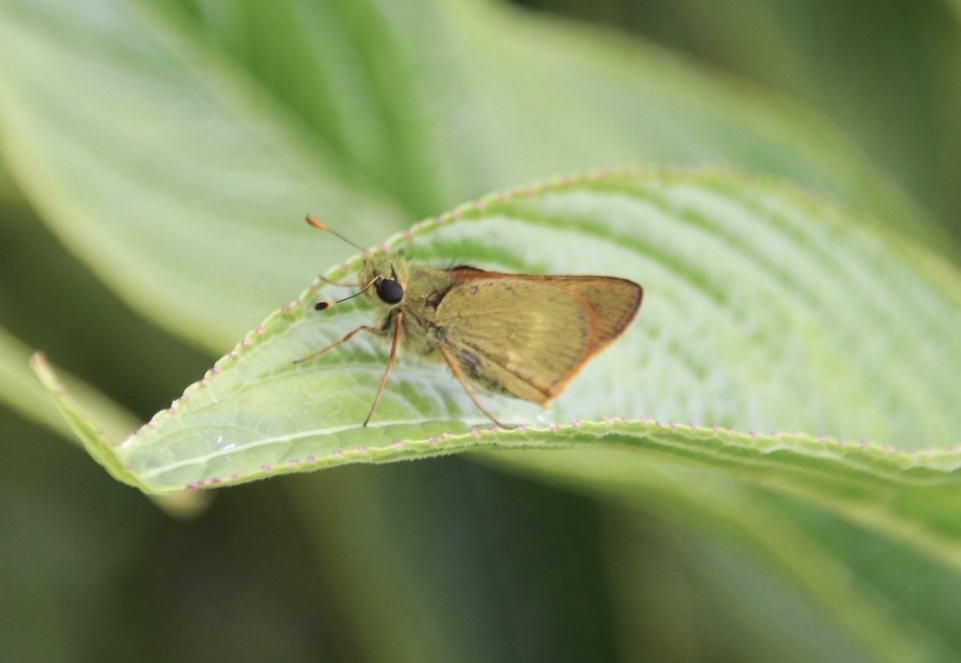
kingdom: Animalia
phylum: Arthropoda
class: Insecta
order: Lepidoptera
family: Hesperiidae
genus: Choranthus
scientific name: Choranthus vitellius
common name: Vitellius skipper
